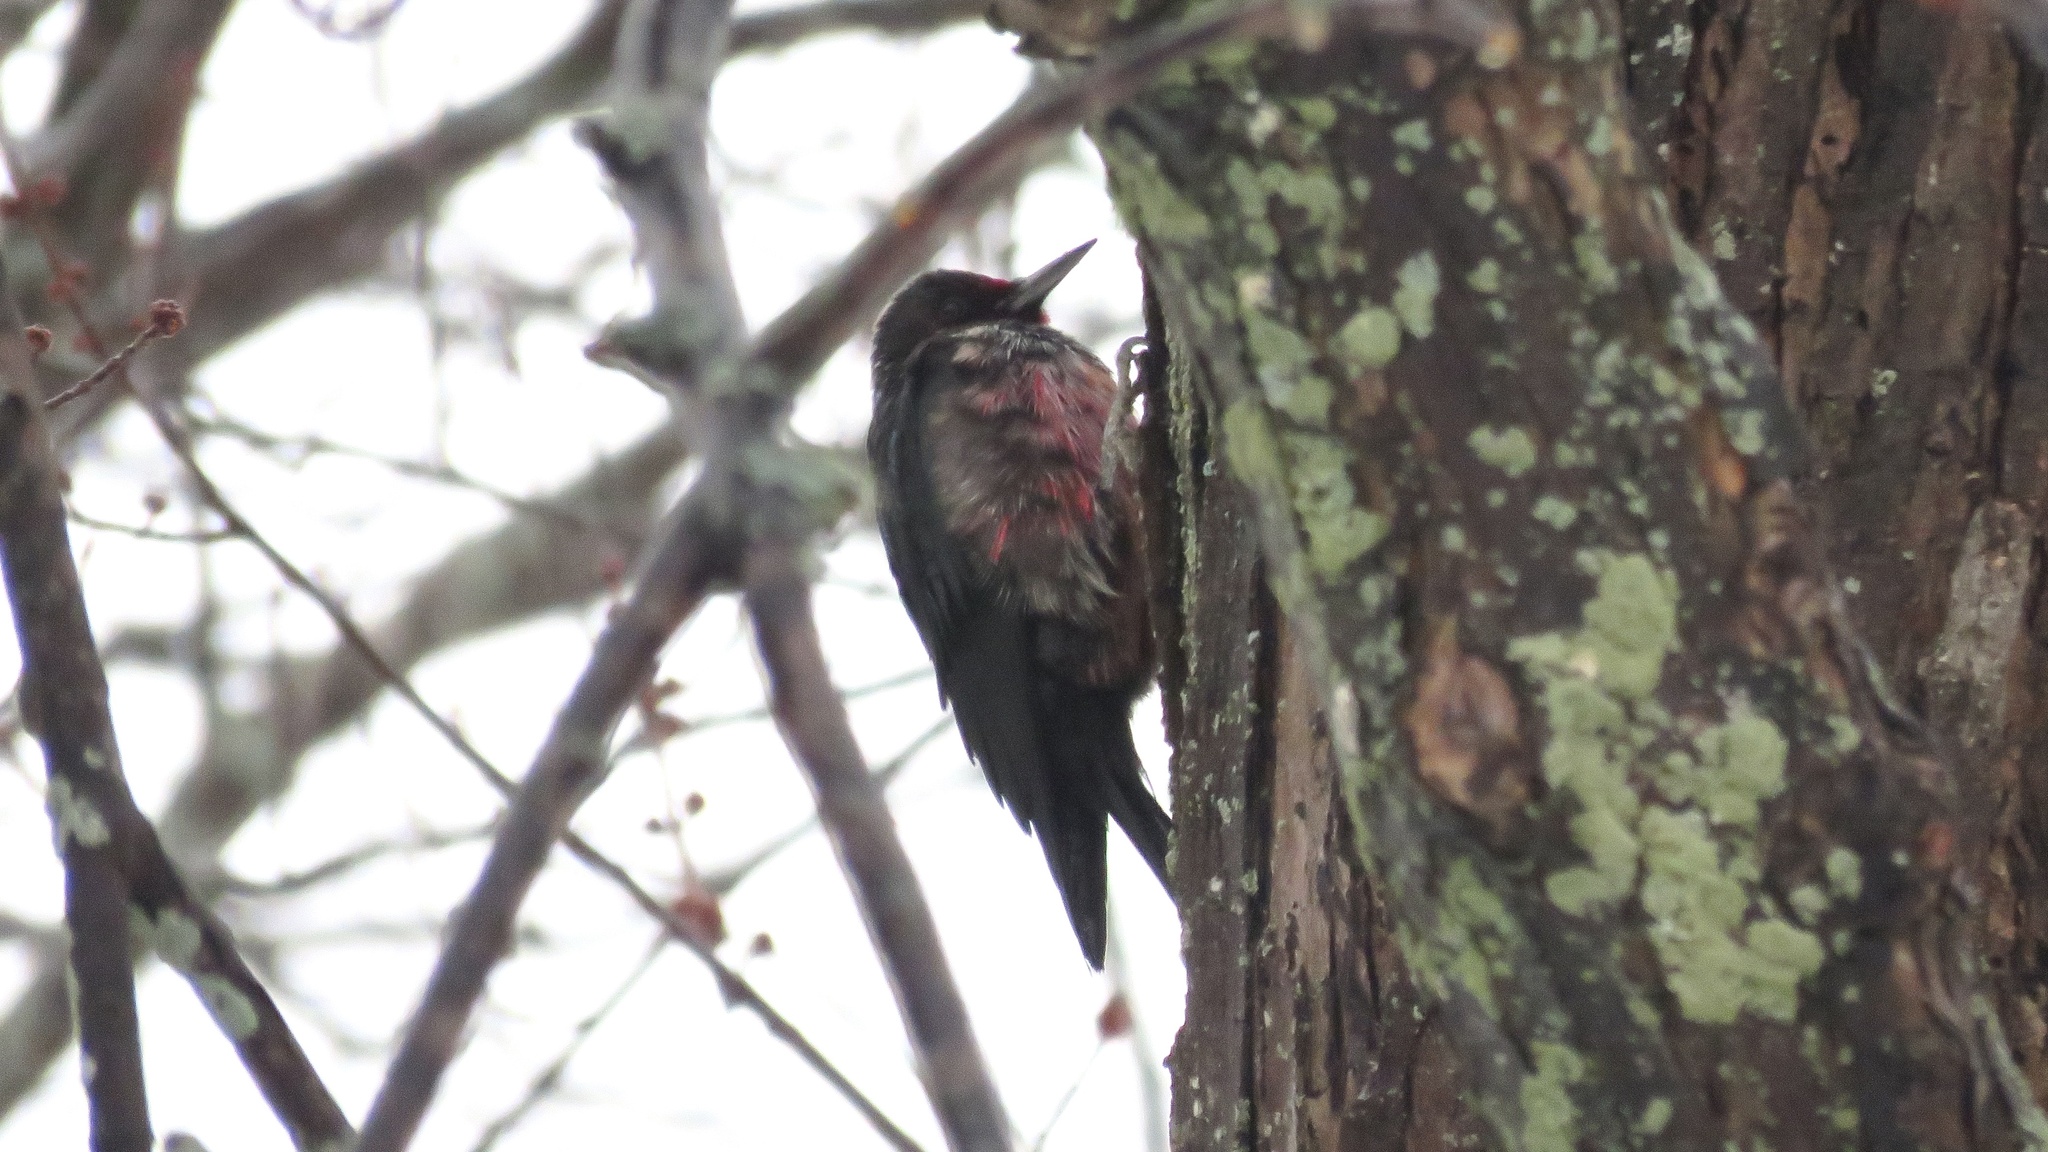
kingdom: Animalia
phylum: Chordata
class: Aves
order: Piciformes
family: Picidae
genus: Melanerpes
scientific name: Melanerpes lewis
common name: Lewis's woodpecker
